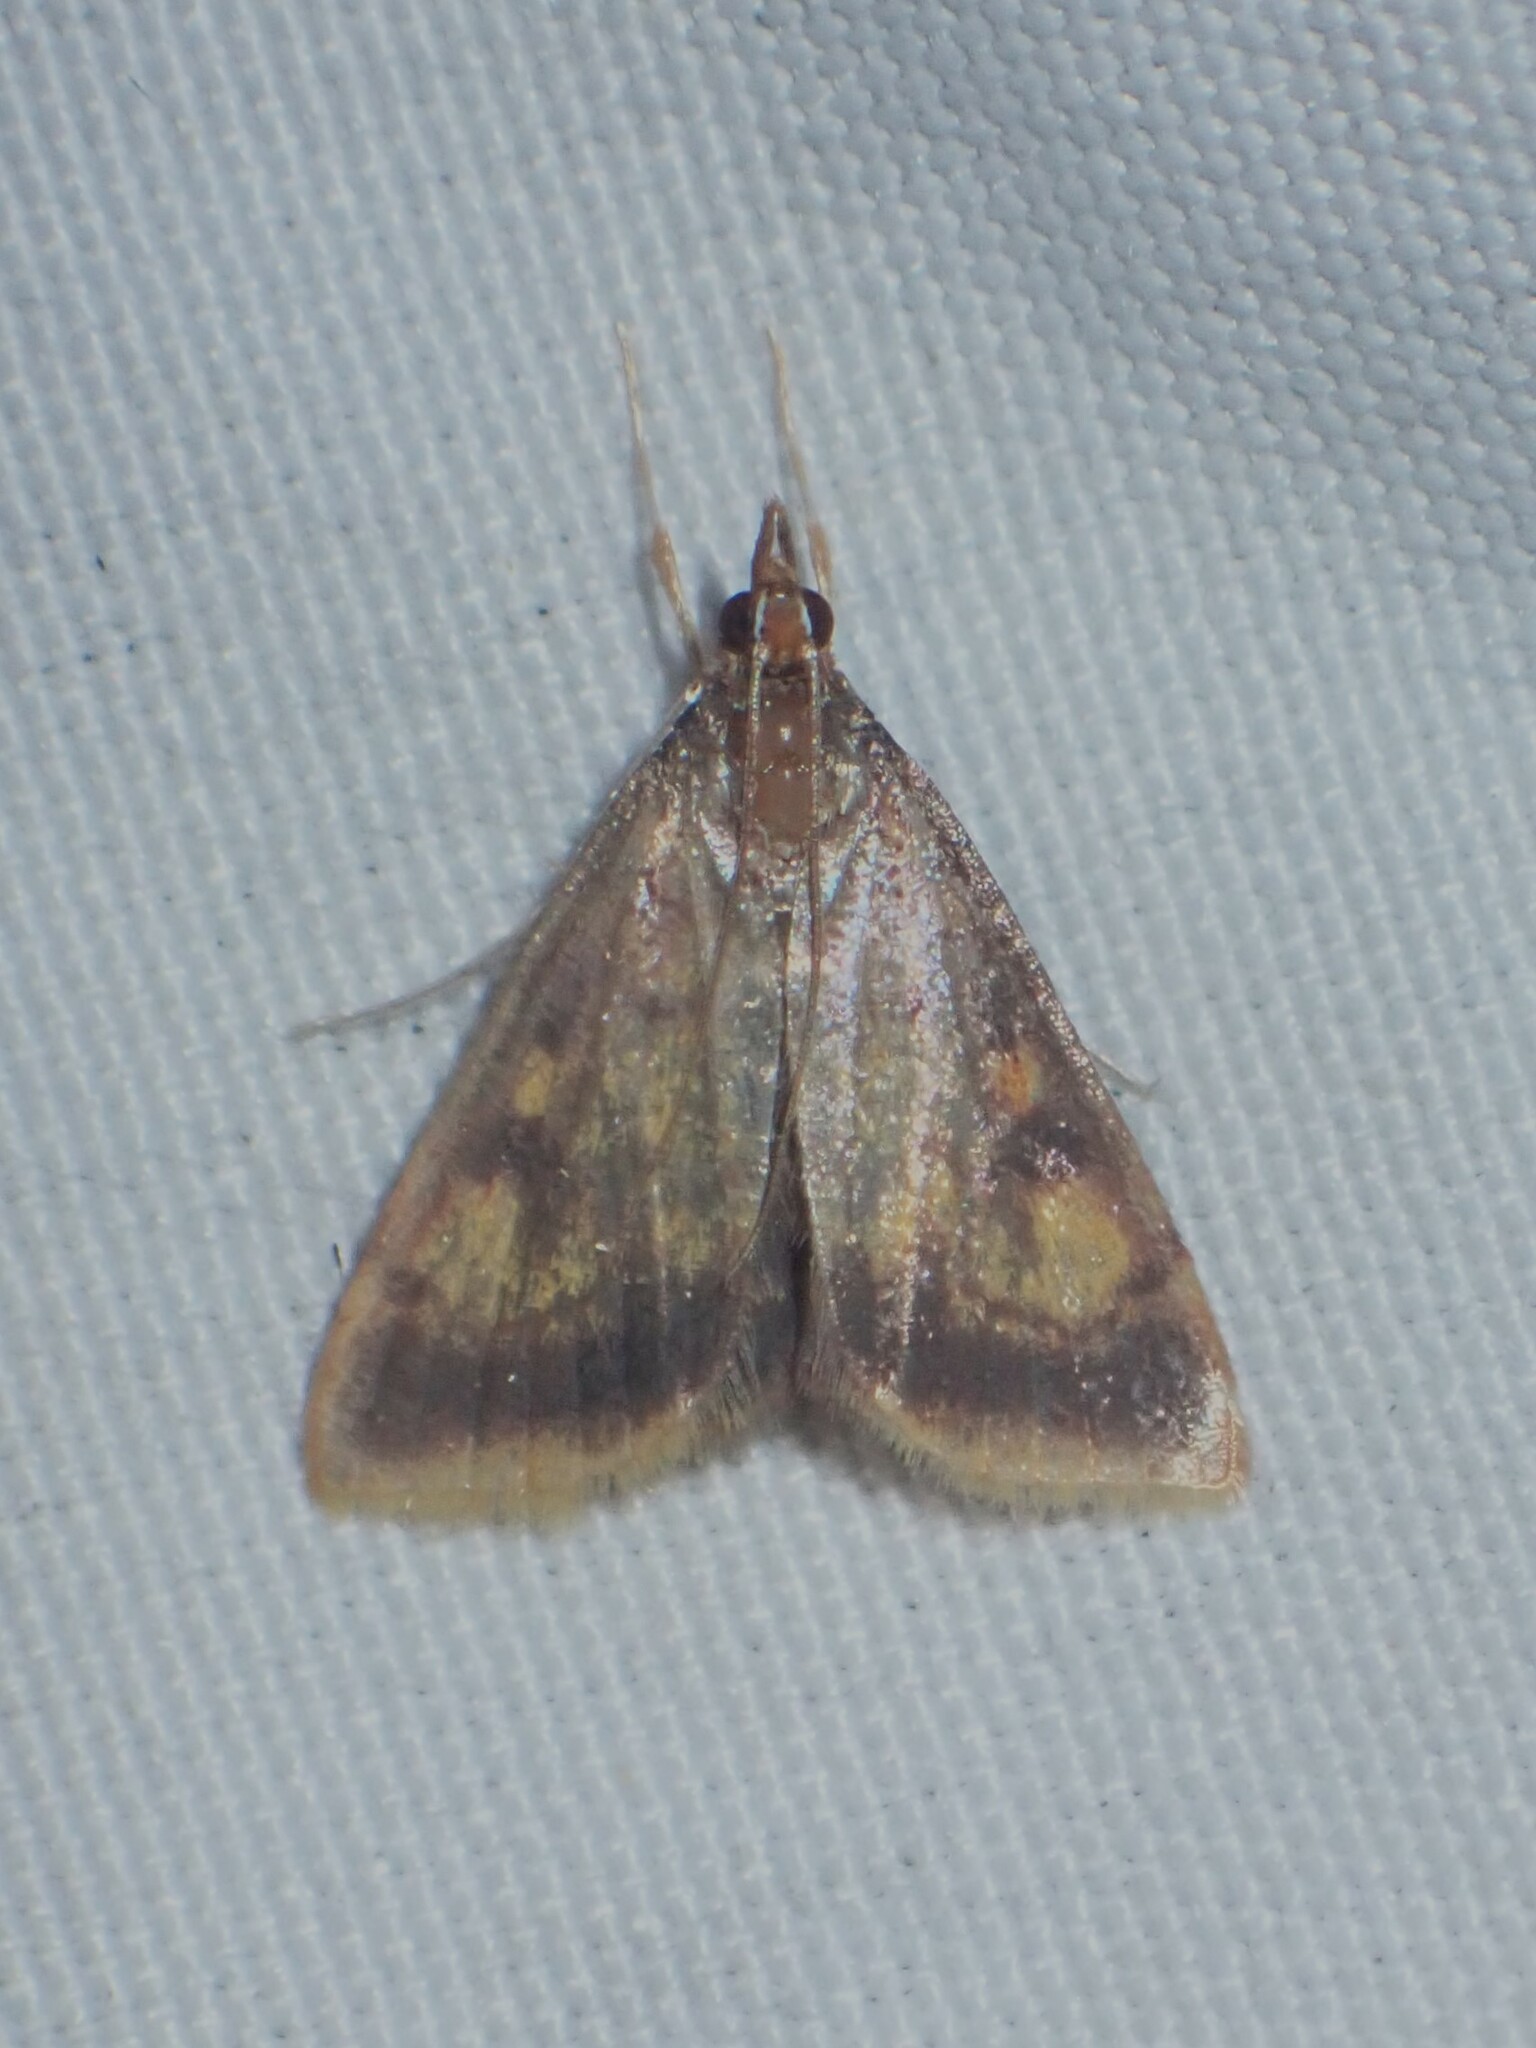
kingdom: Animalia
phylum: Arthropoda
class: Insecta
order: Lepidoptera
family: Crambidae
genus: Pyrausta
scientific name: Pyrausta acrionalis
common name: Mint-loving pyrausta moth
